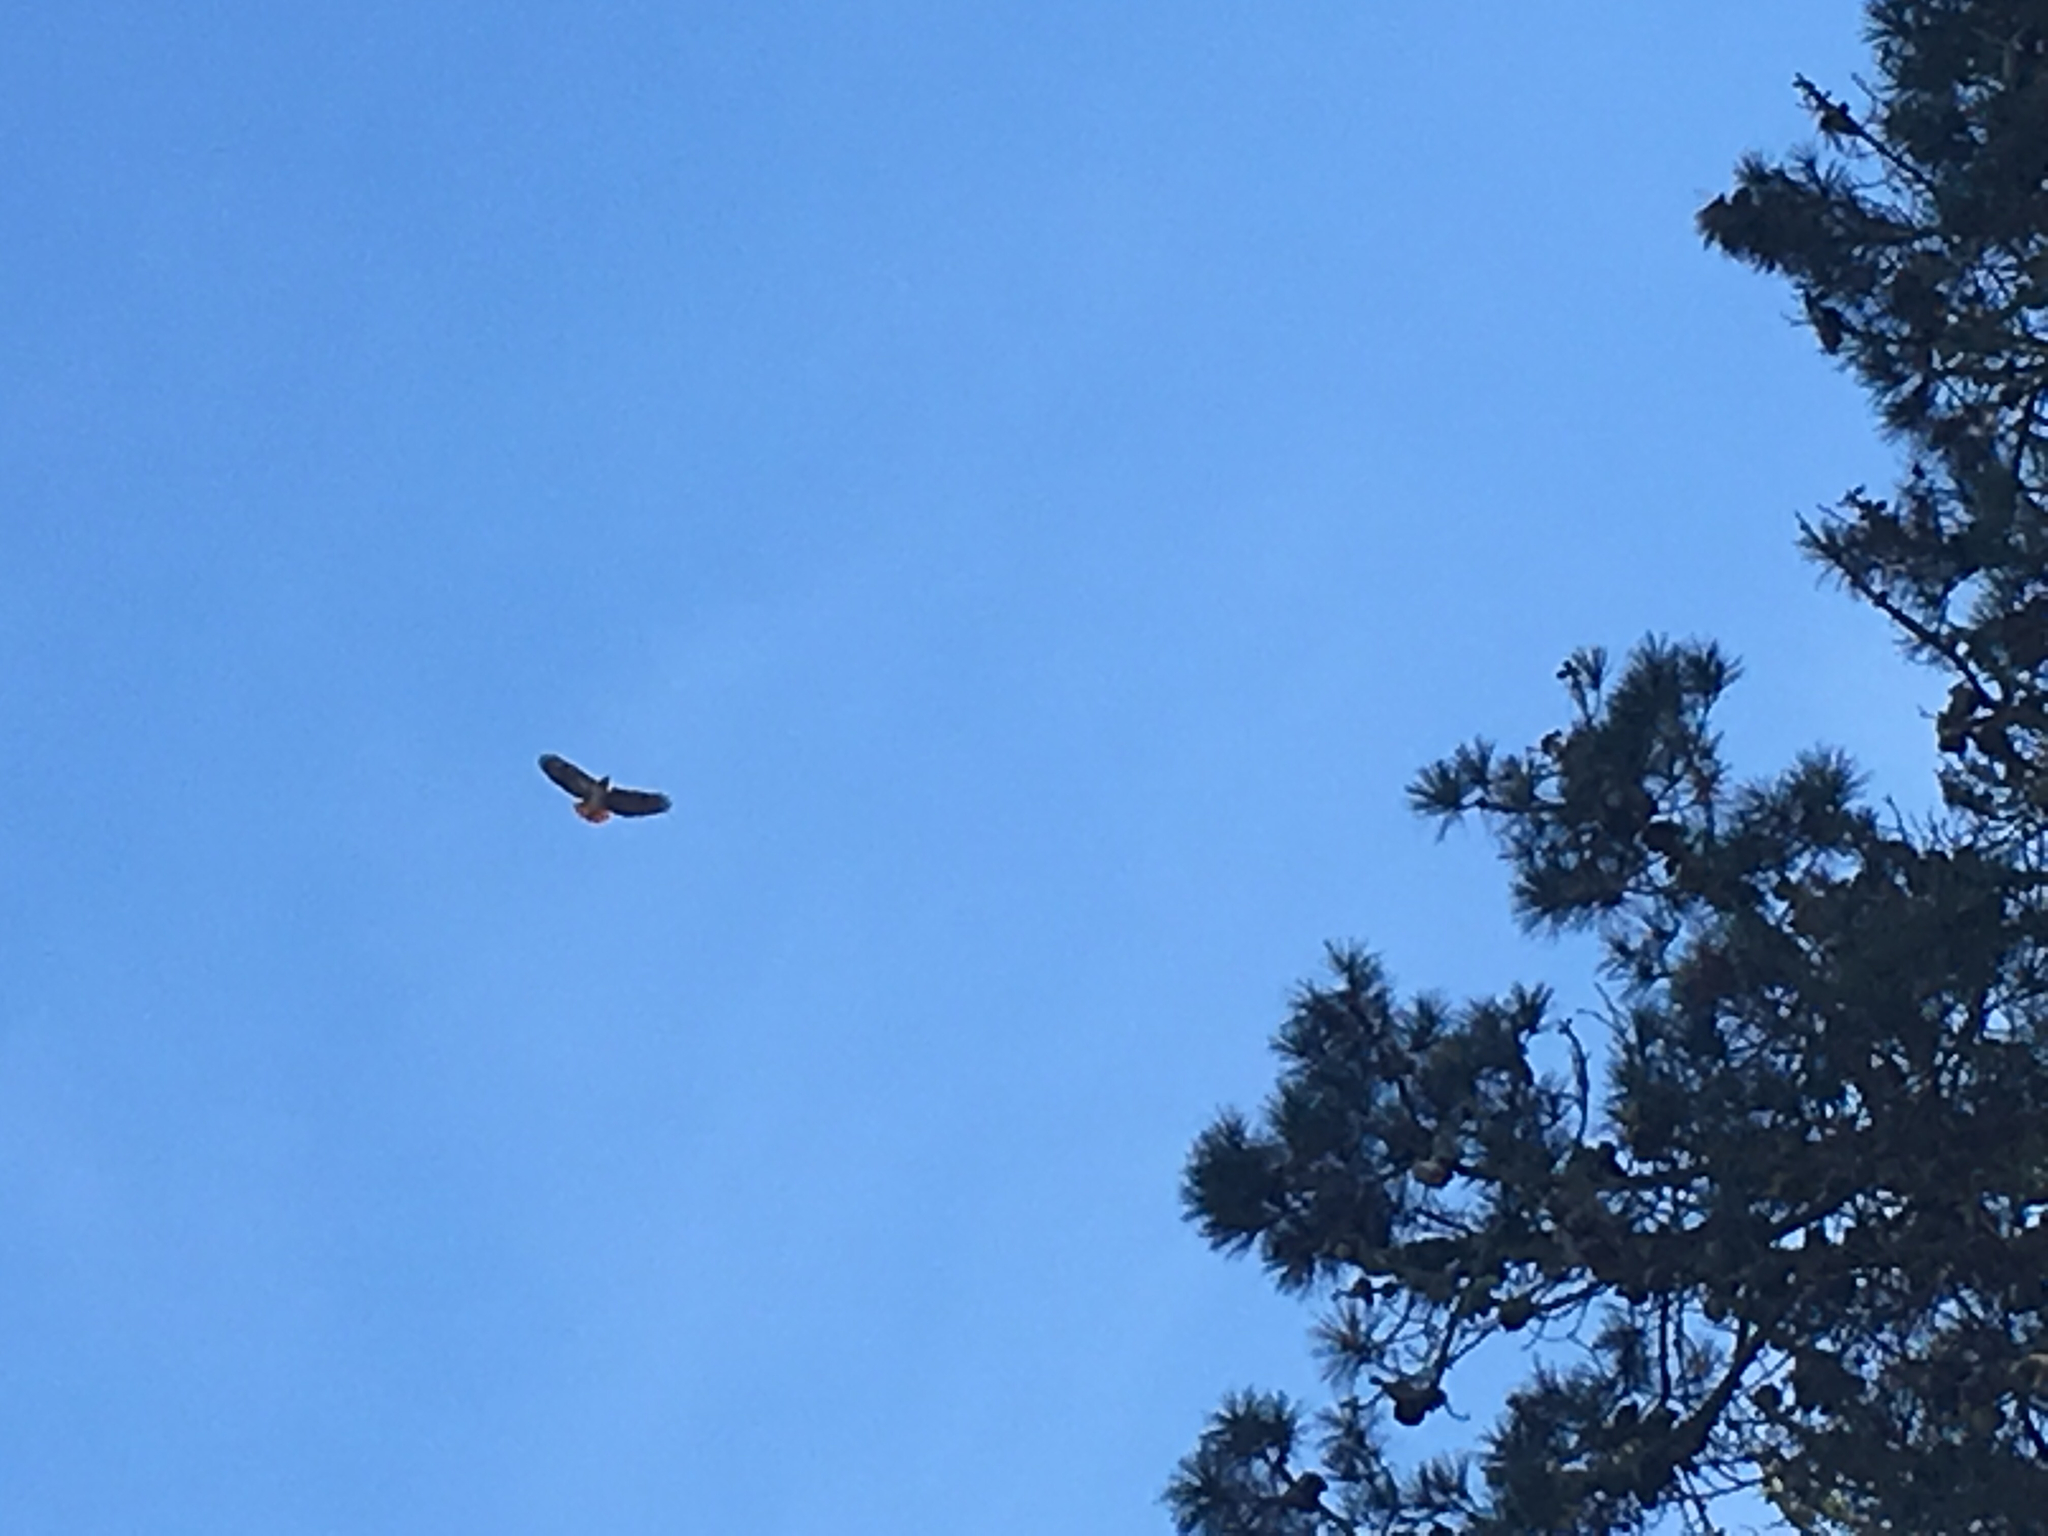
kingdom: Animalia
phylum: Chordata
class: Aves
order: Accipitriformes
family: Accipitridae
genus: Buteo
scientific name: Buteo jamaicensis
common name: Red-tailed hawk
